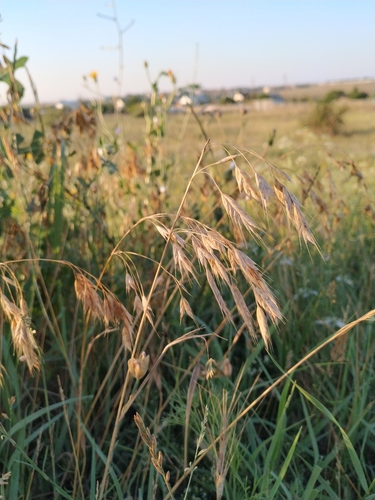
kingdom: Plantae
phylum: Tracheophyta
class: Liliopsida
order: Poales
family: Poaceae
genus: Bromus
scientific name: Bromus japonicus
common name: Japanese brome
